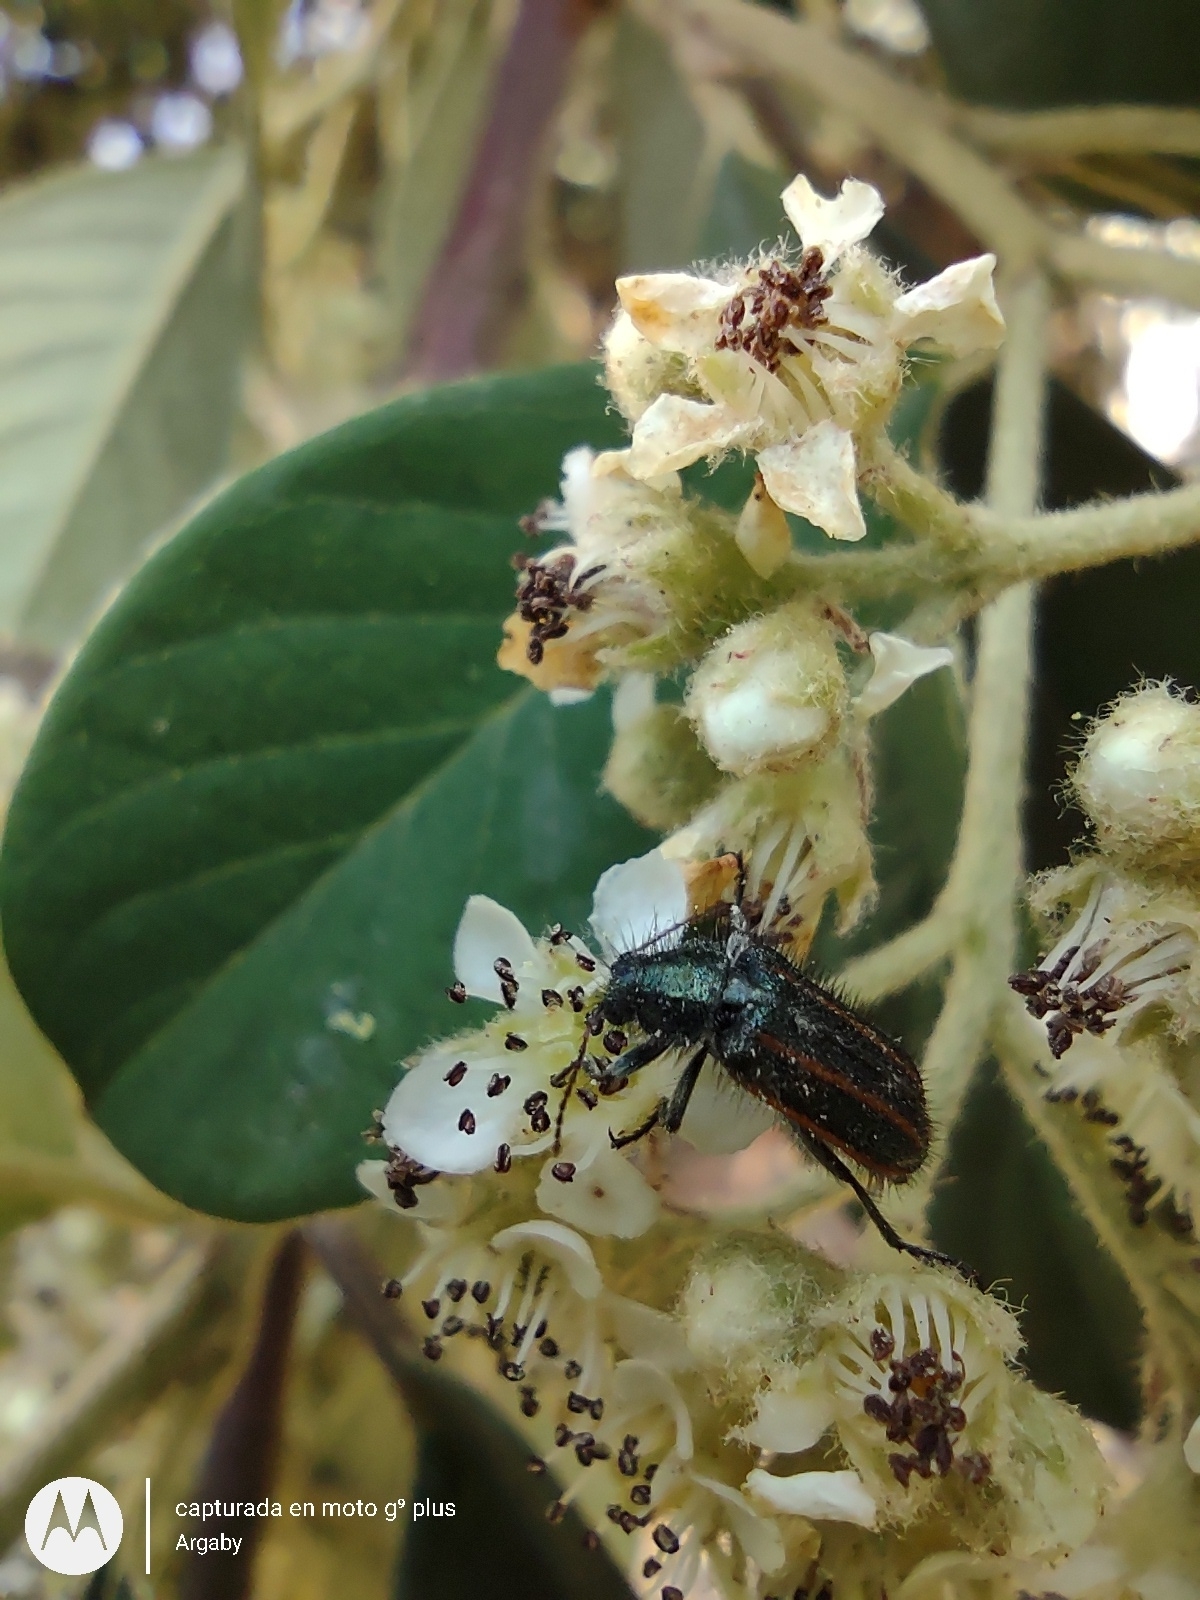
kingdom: Animalia
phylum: Arthropoda
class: Insecta
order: Coleoptera
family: Melyridae
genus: Astylus
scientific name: Astylus
